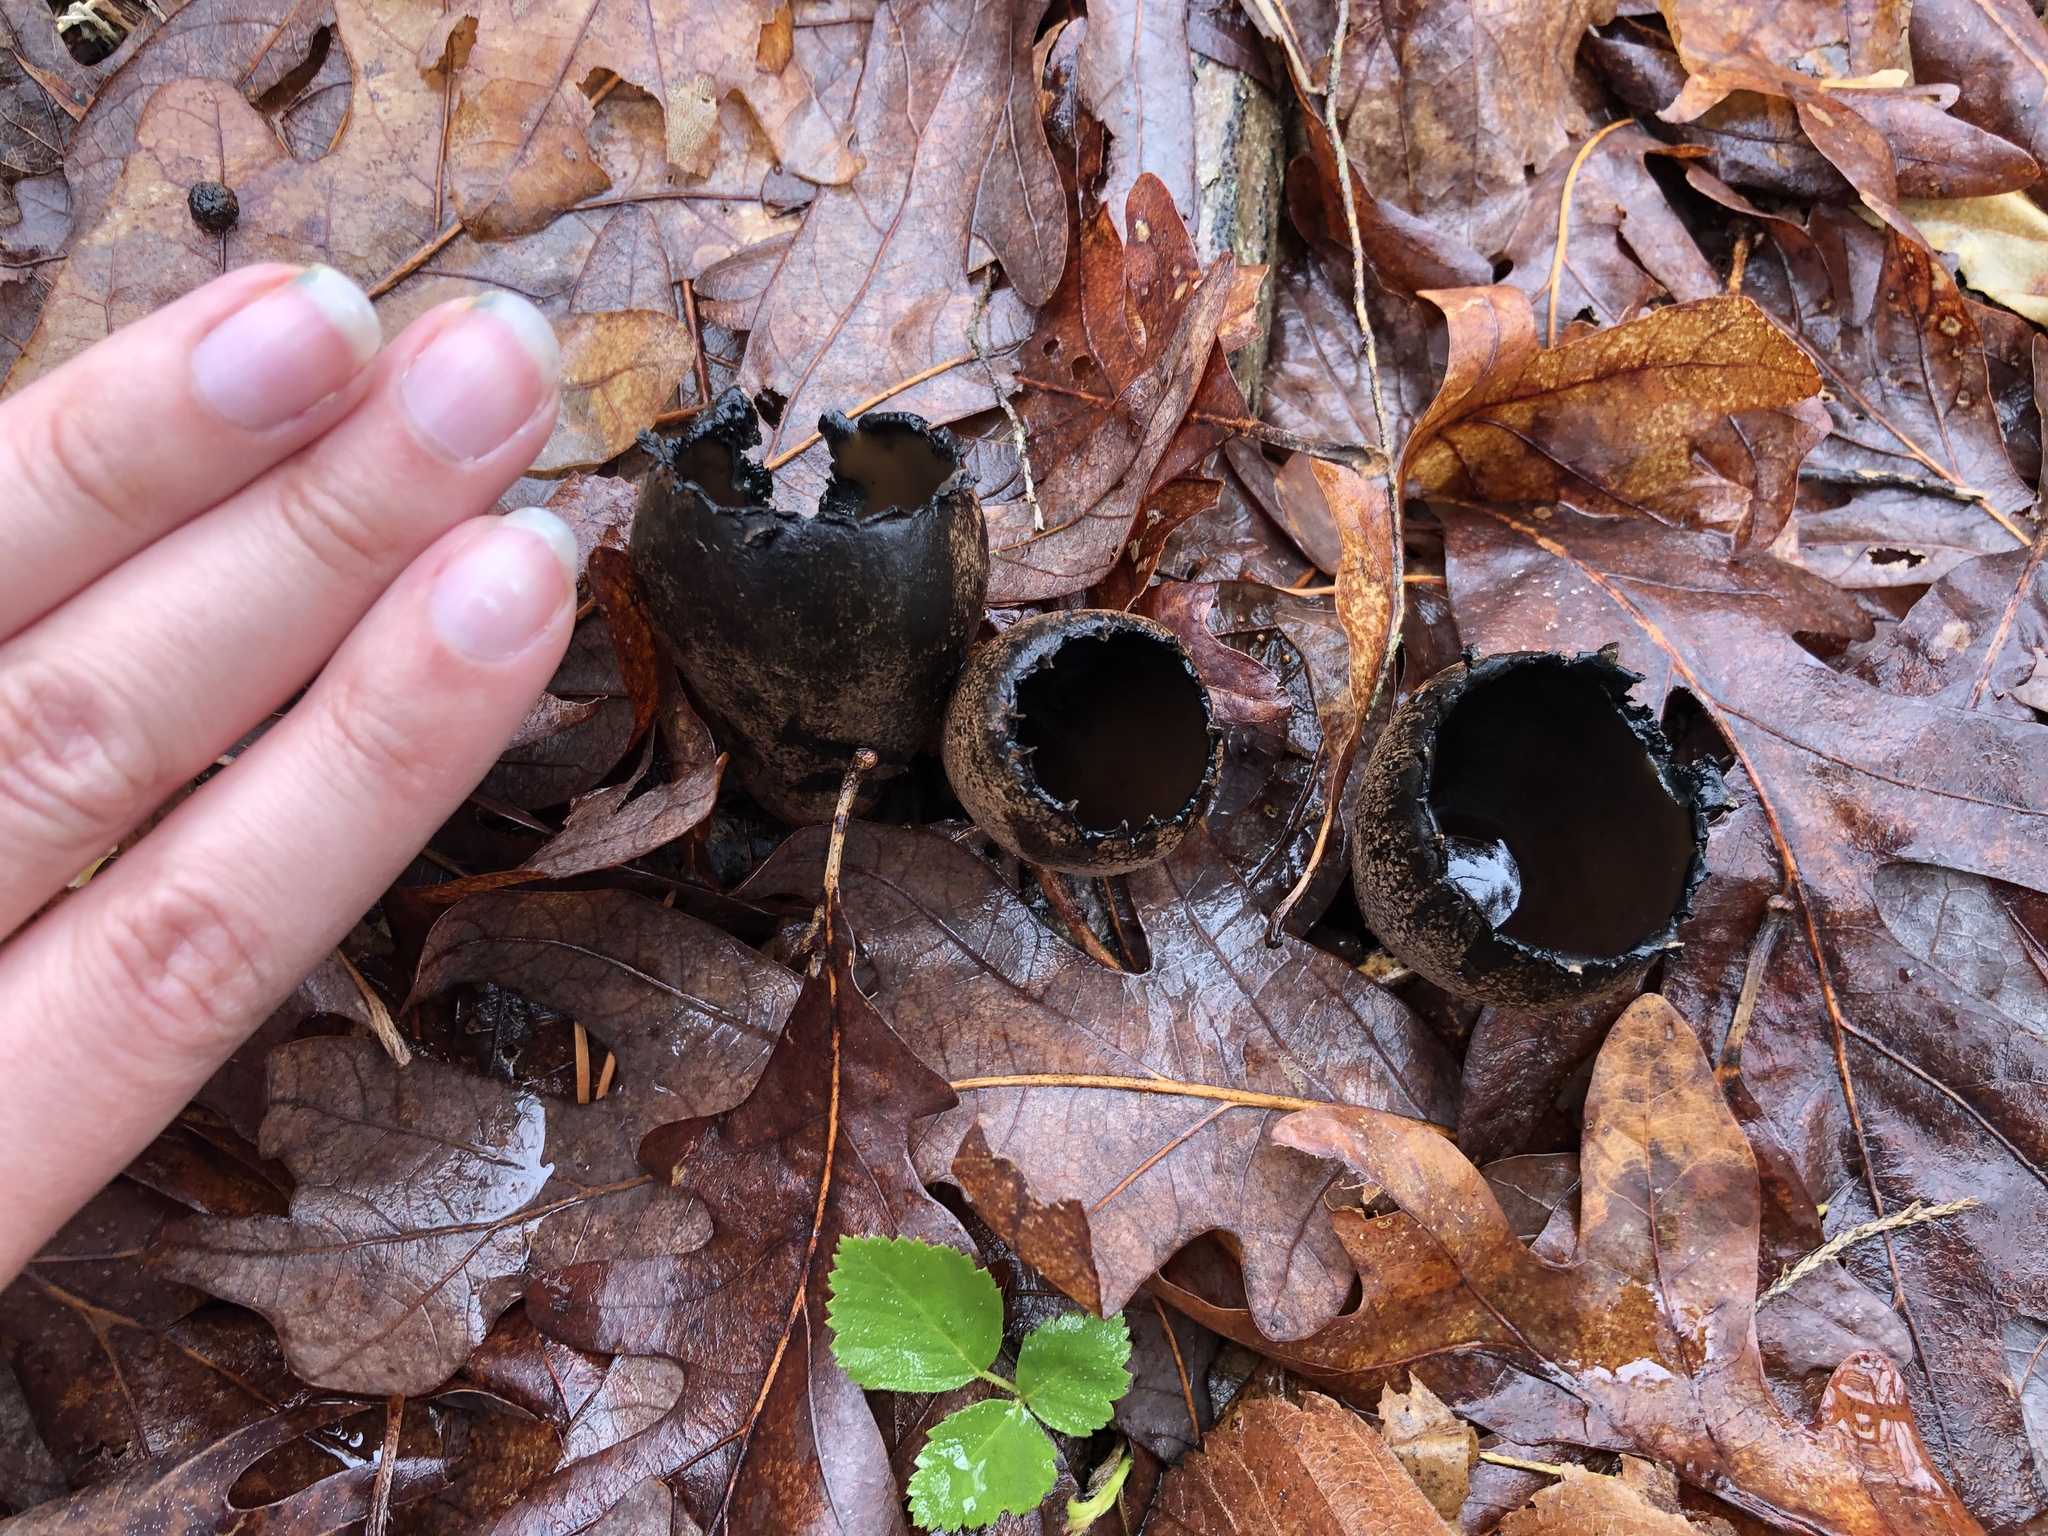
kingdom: Fungi
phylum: Ascomycota
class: Pezizomycetes
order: Pezizales
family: Sarcosomataceae
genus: Urnula
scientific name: Urnula craterium
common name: Devil's urn
